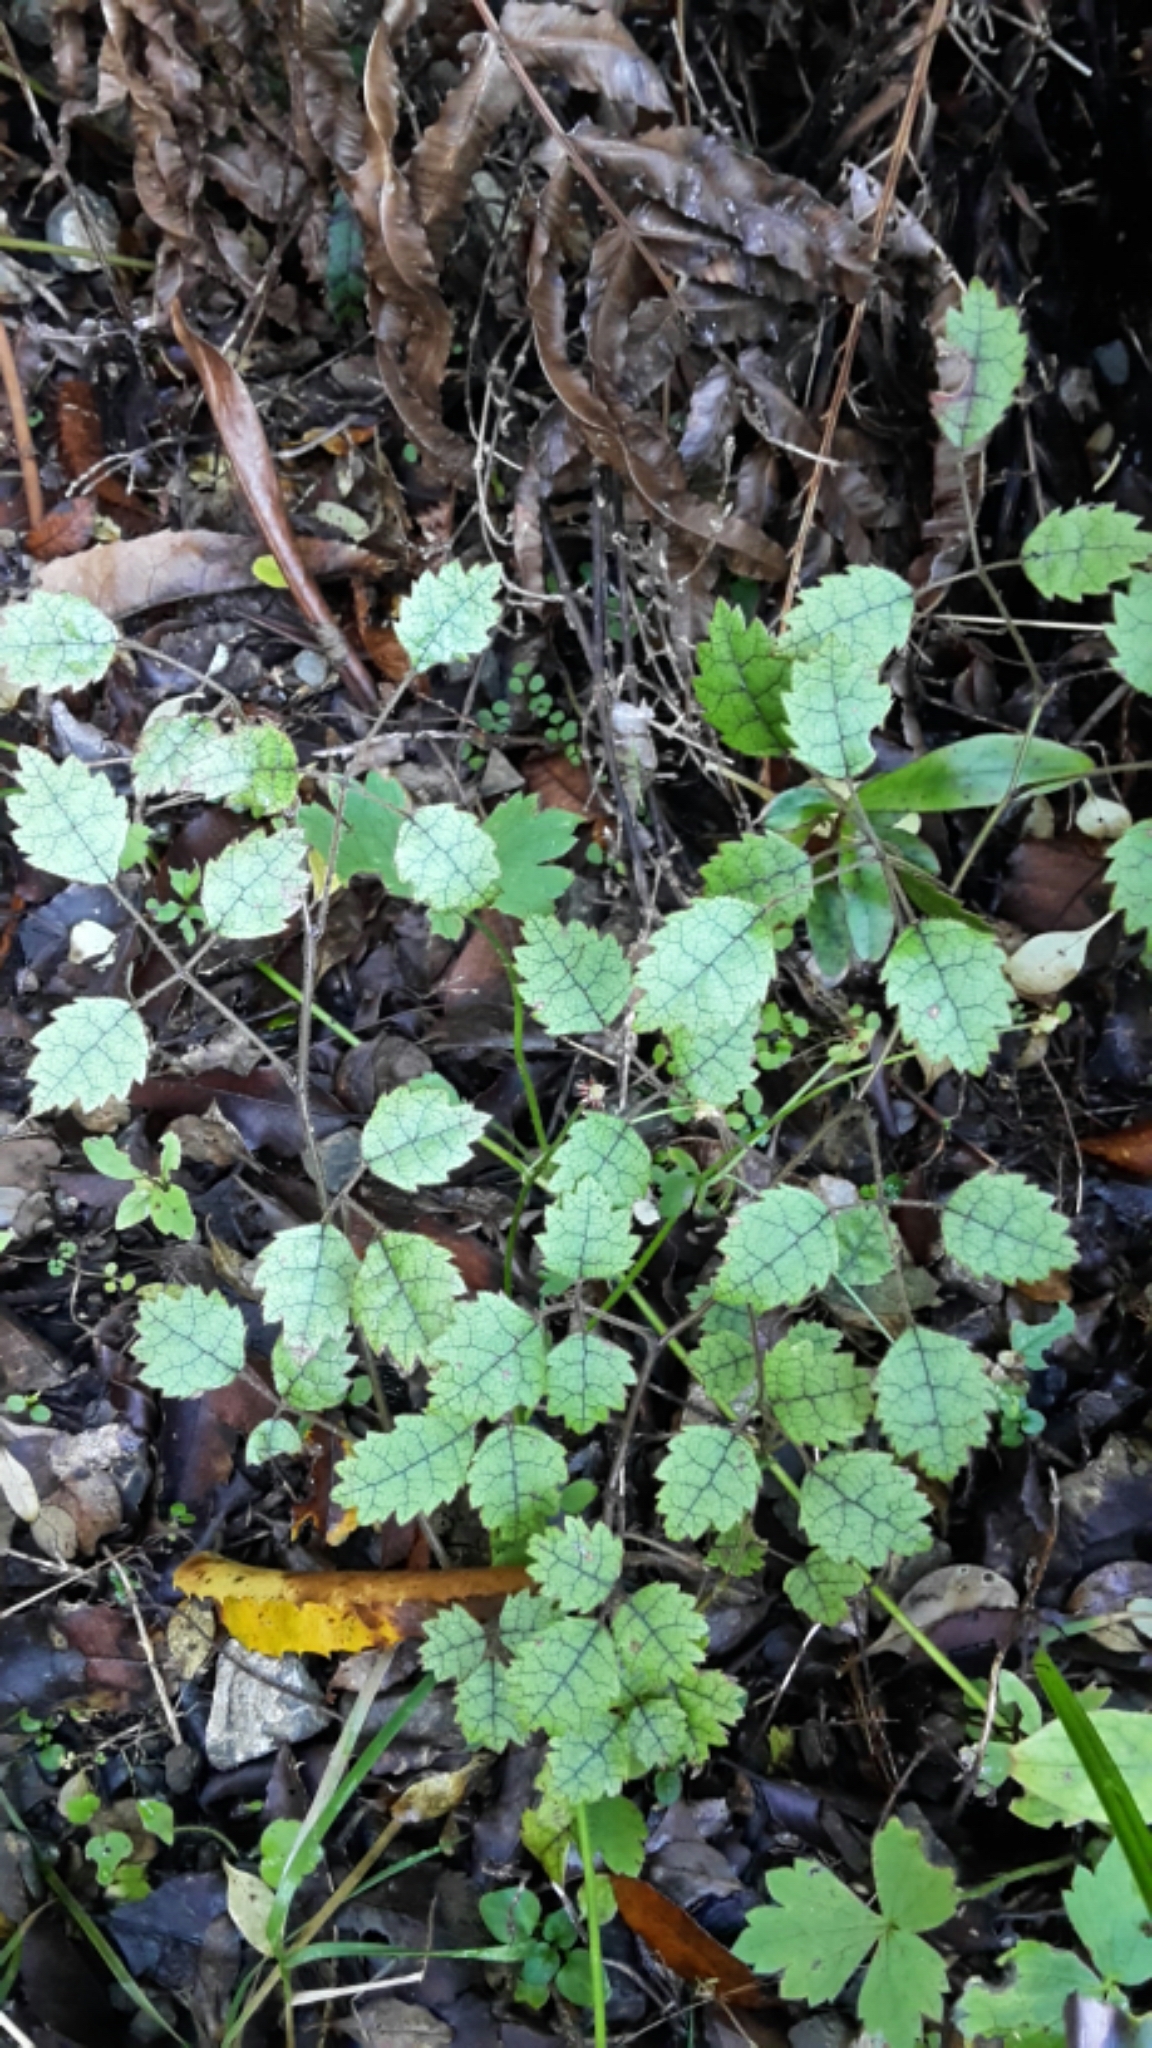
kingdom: Plantae
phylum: Tracheophyta
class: Magnoliopsida
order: Rosales
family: Rosaceae
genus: Rubus
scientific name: Rubus australis
